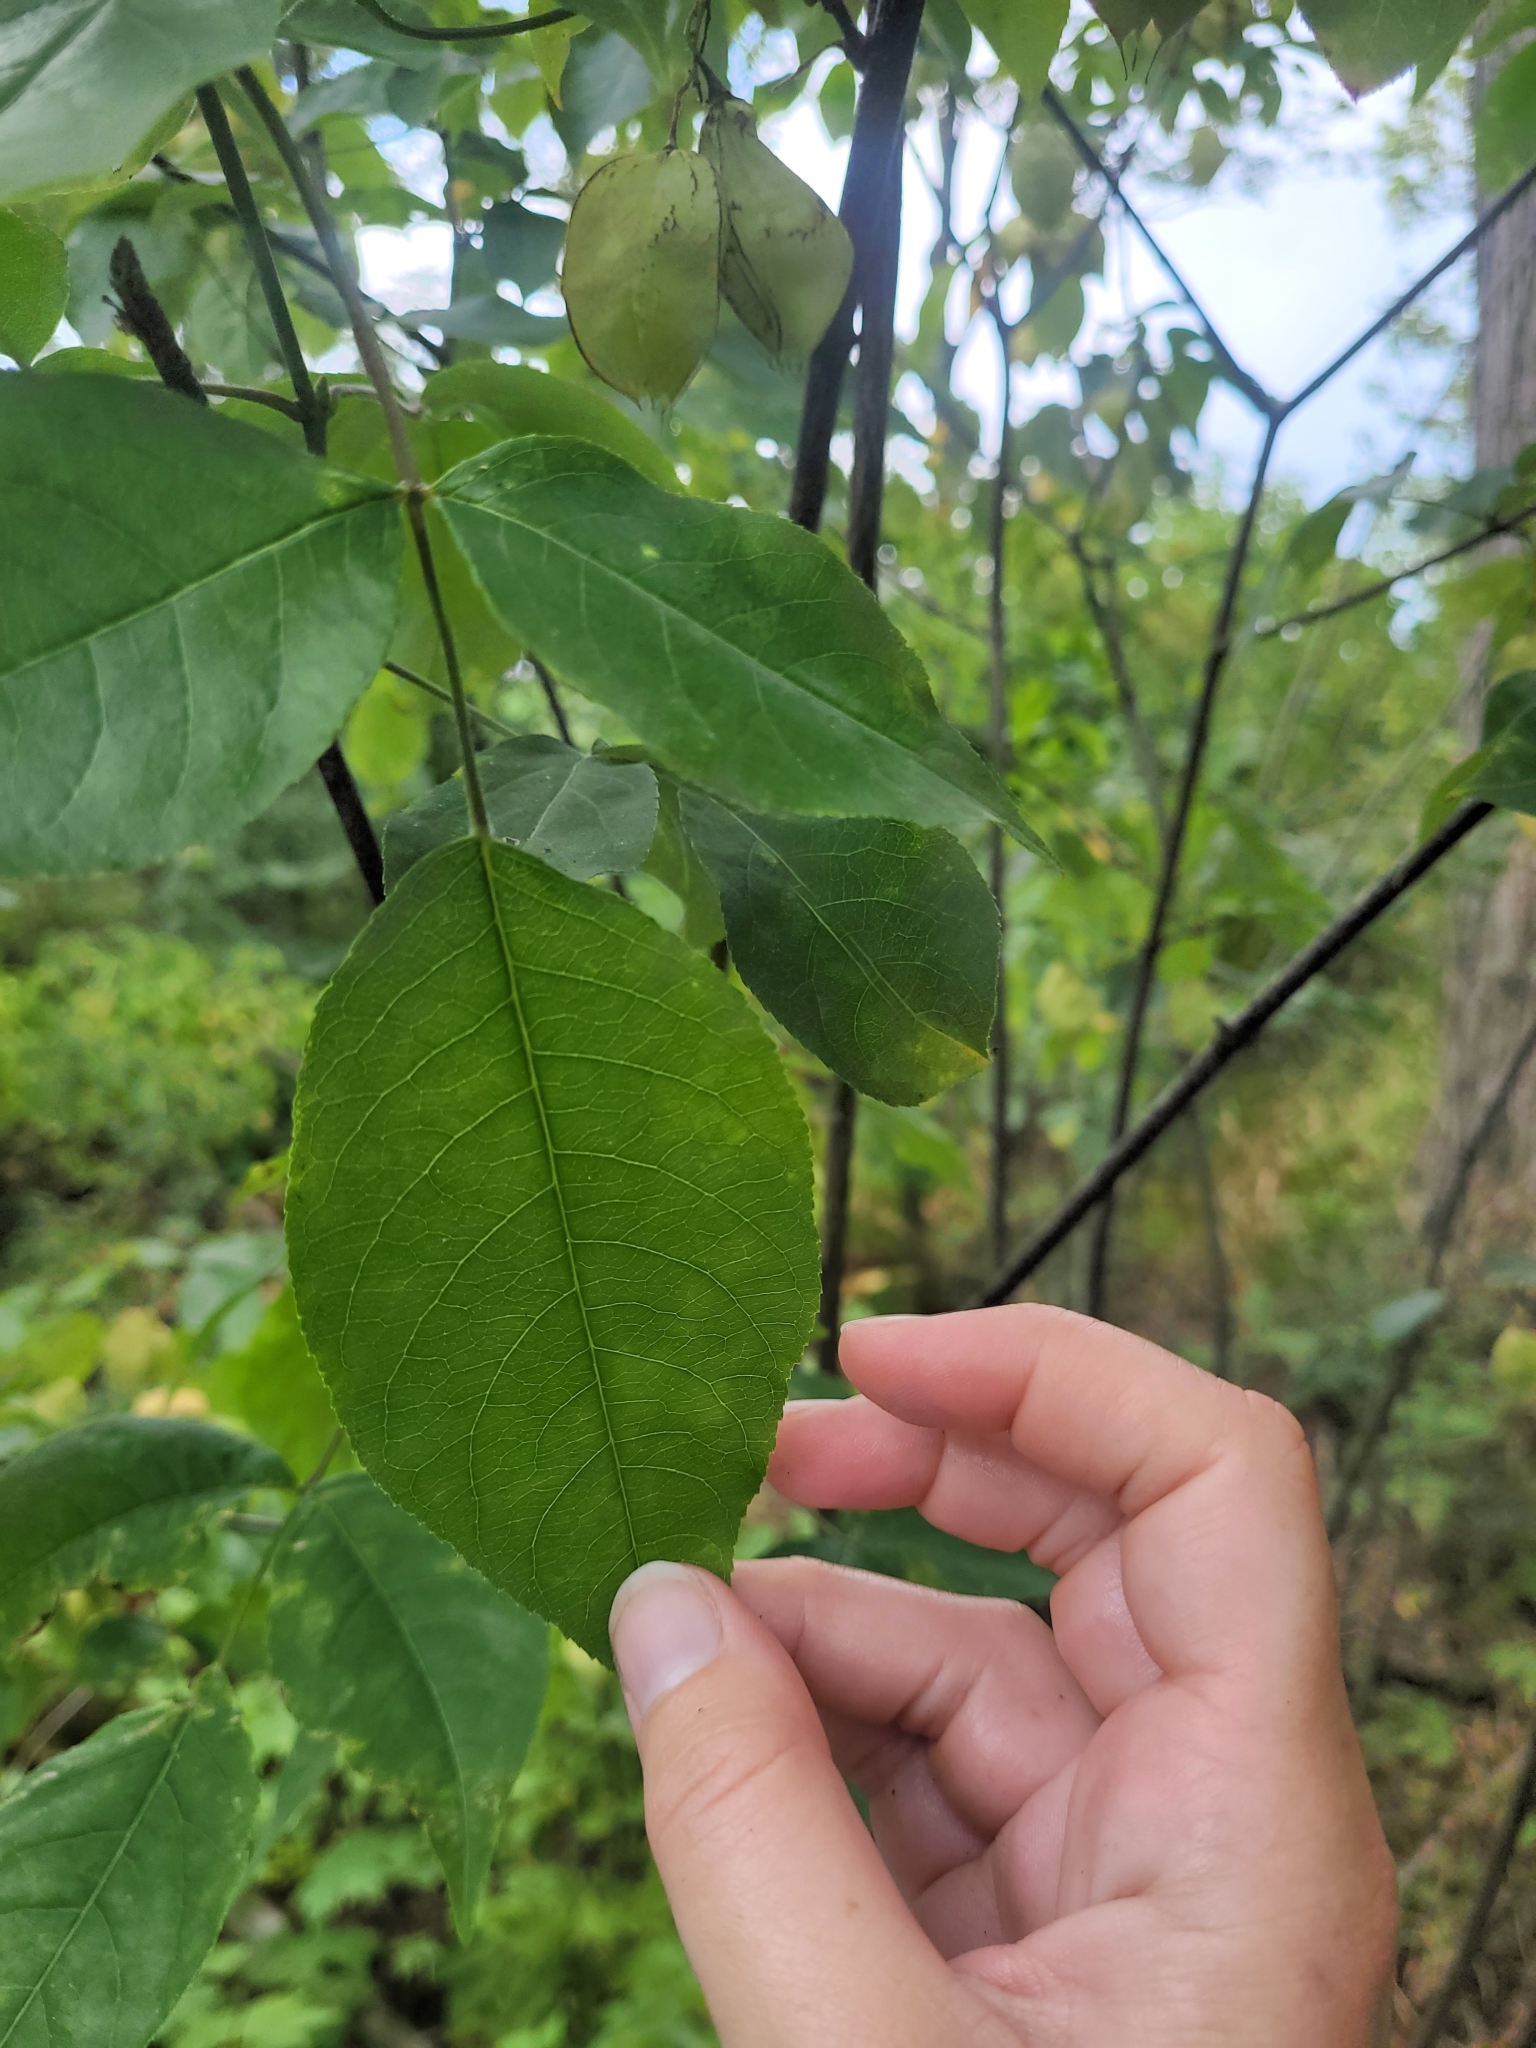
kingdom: Plantae
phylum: Tracheophyta
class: Magnoliopsida
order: Crossosomatales
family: Staphyleaceae
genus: Staphylea
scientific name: Staphylea trifolia
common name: American bladdernut
